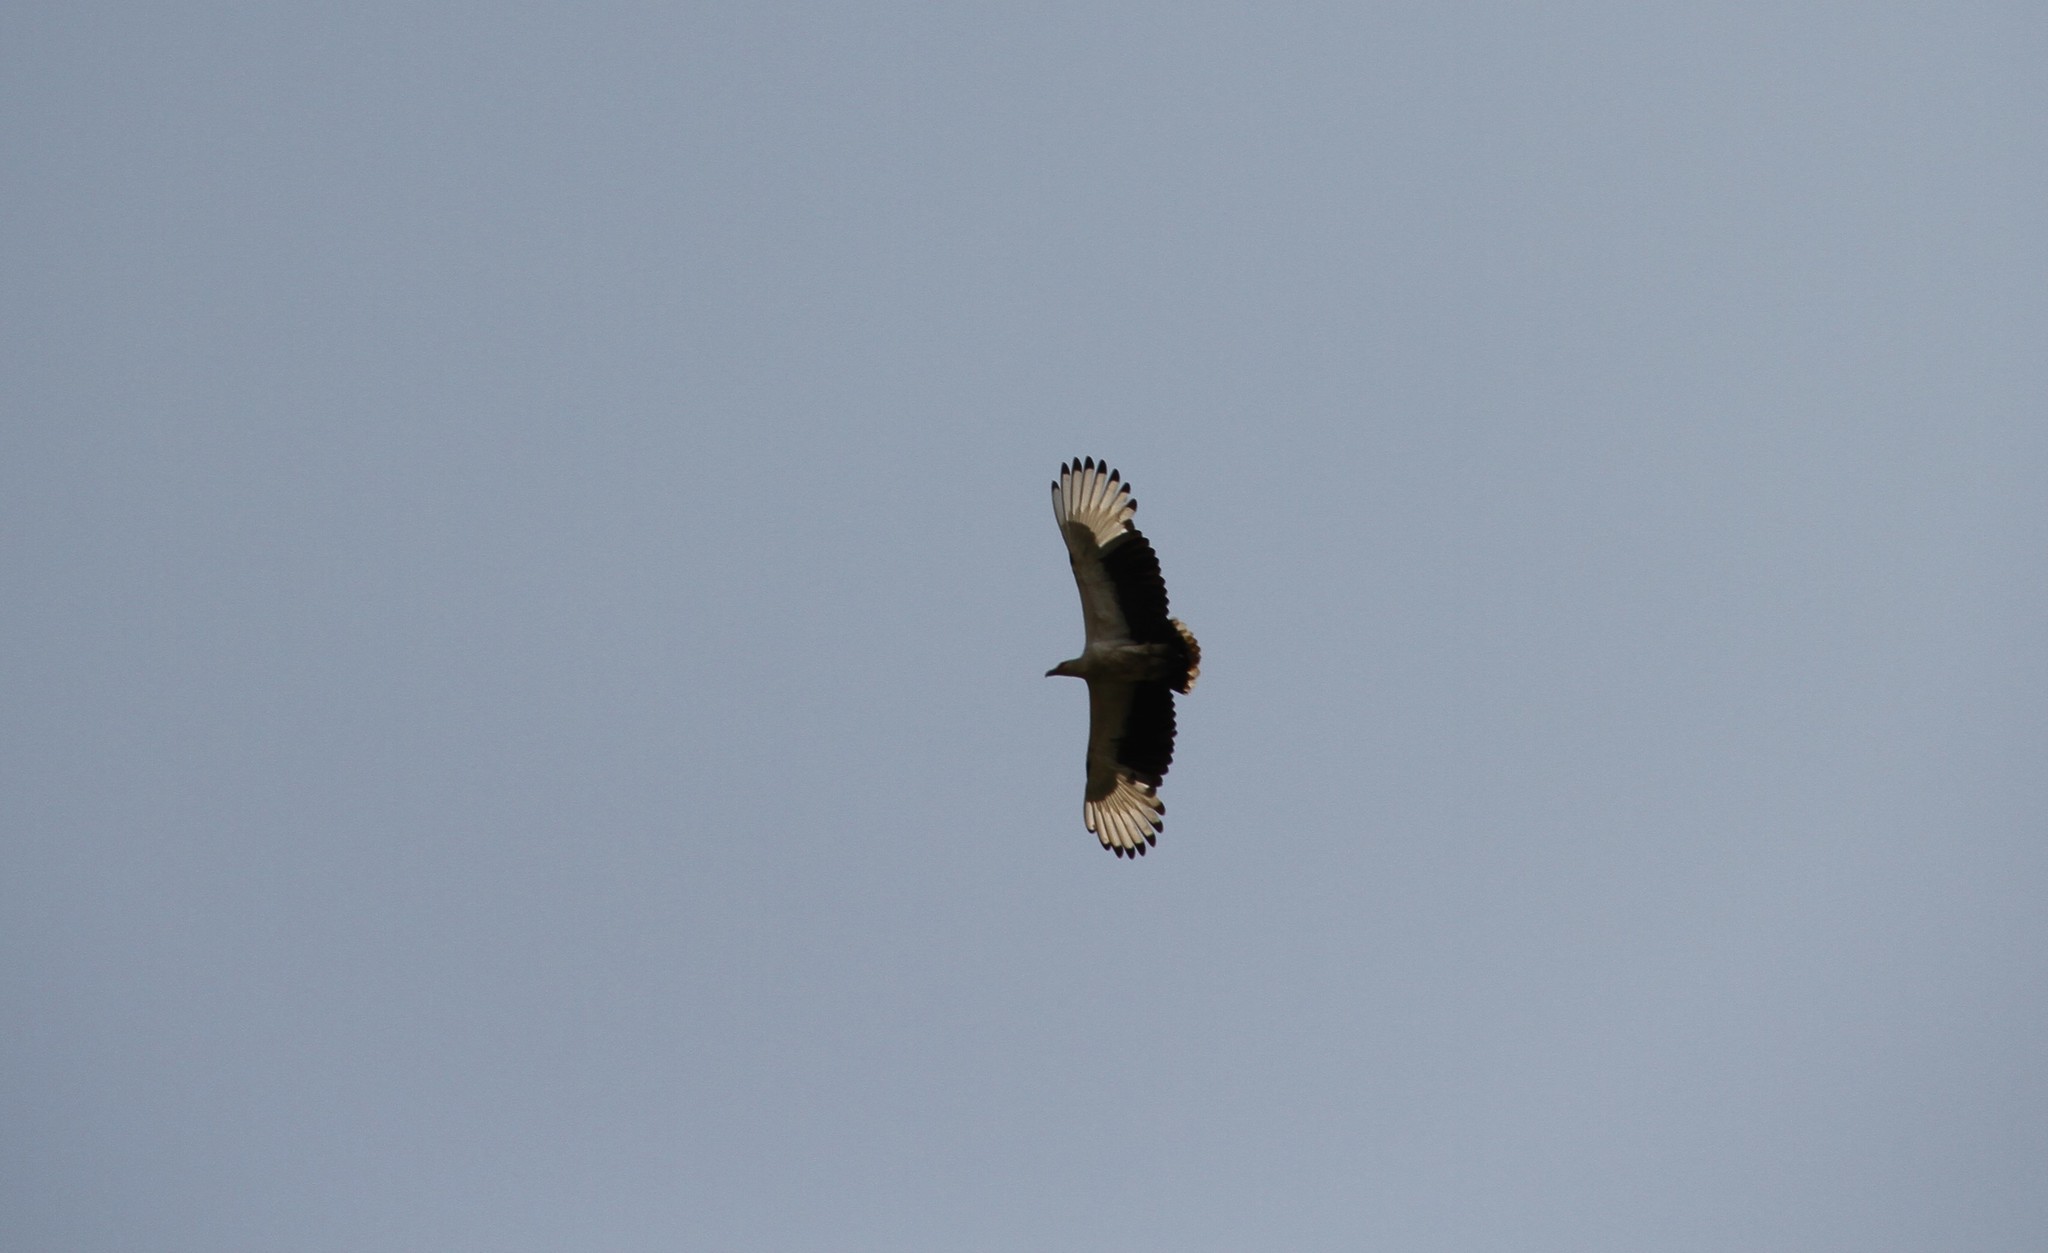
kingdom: Animalia
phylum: Chordata
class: Aves
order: Accipitriformes
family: Accipitridae
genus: Gypohierax
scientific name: Gypohierax angolensis
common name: Palm-nut vulture
